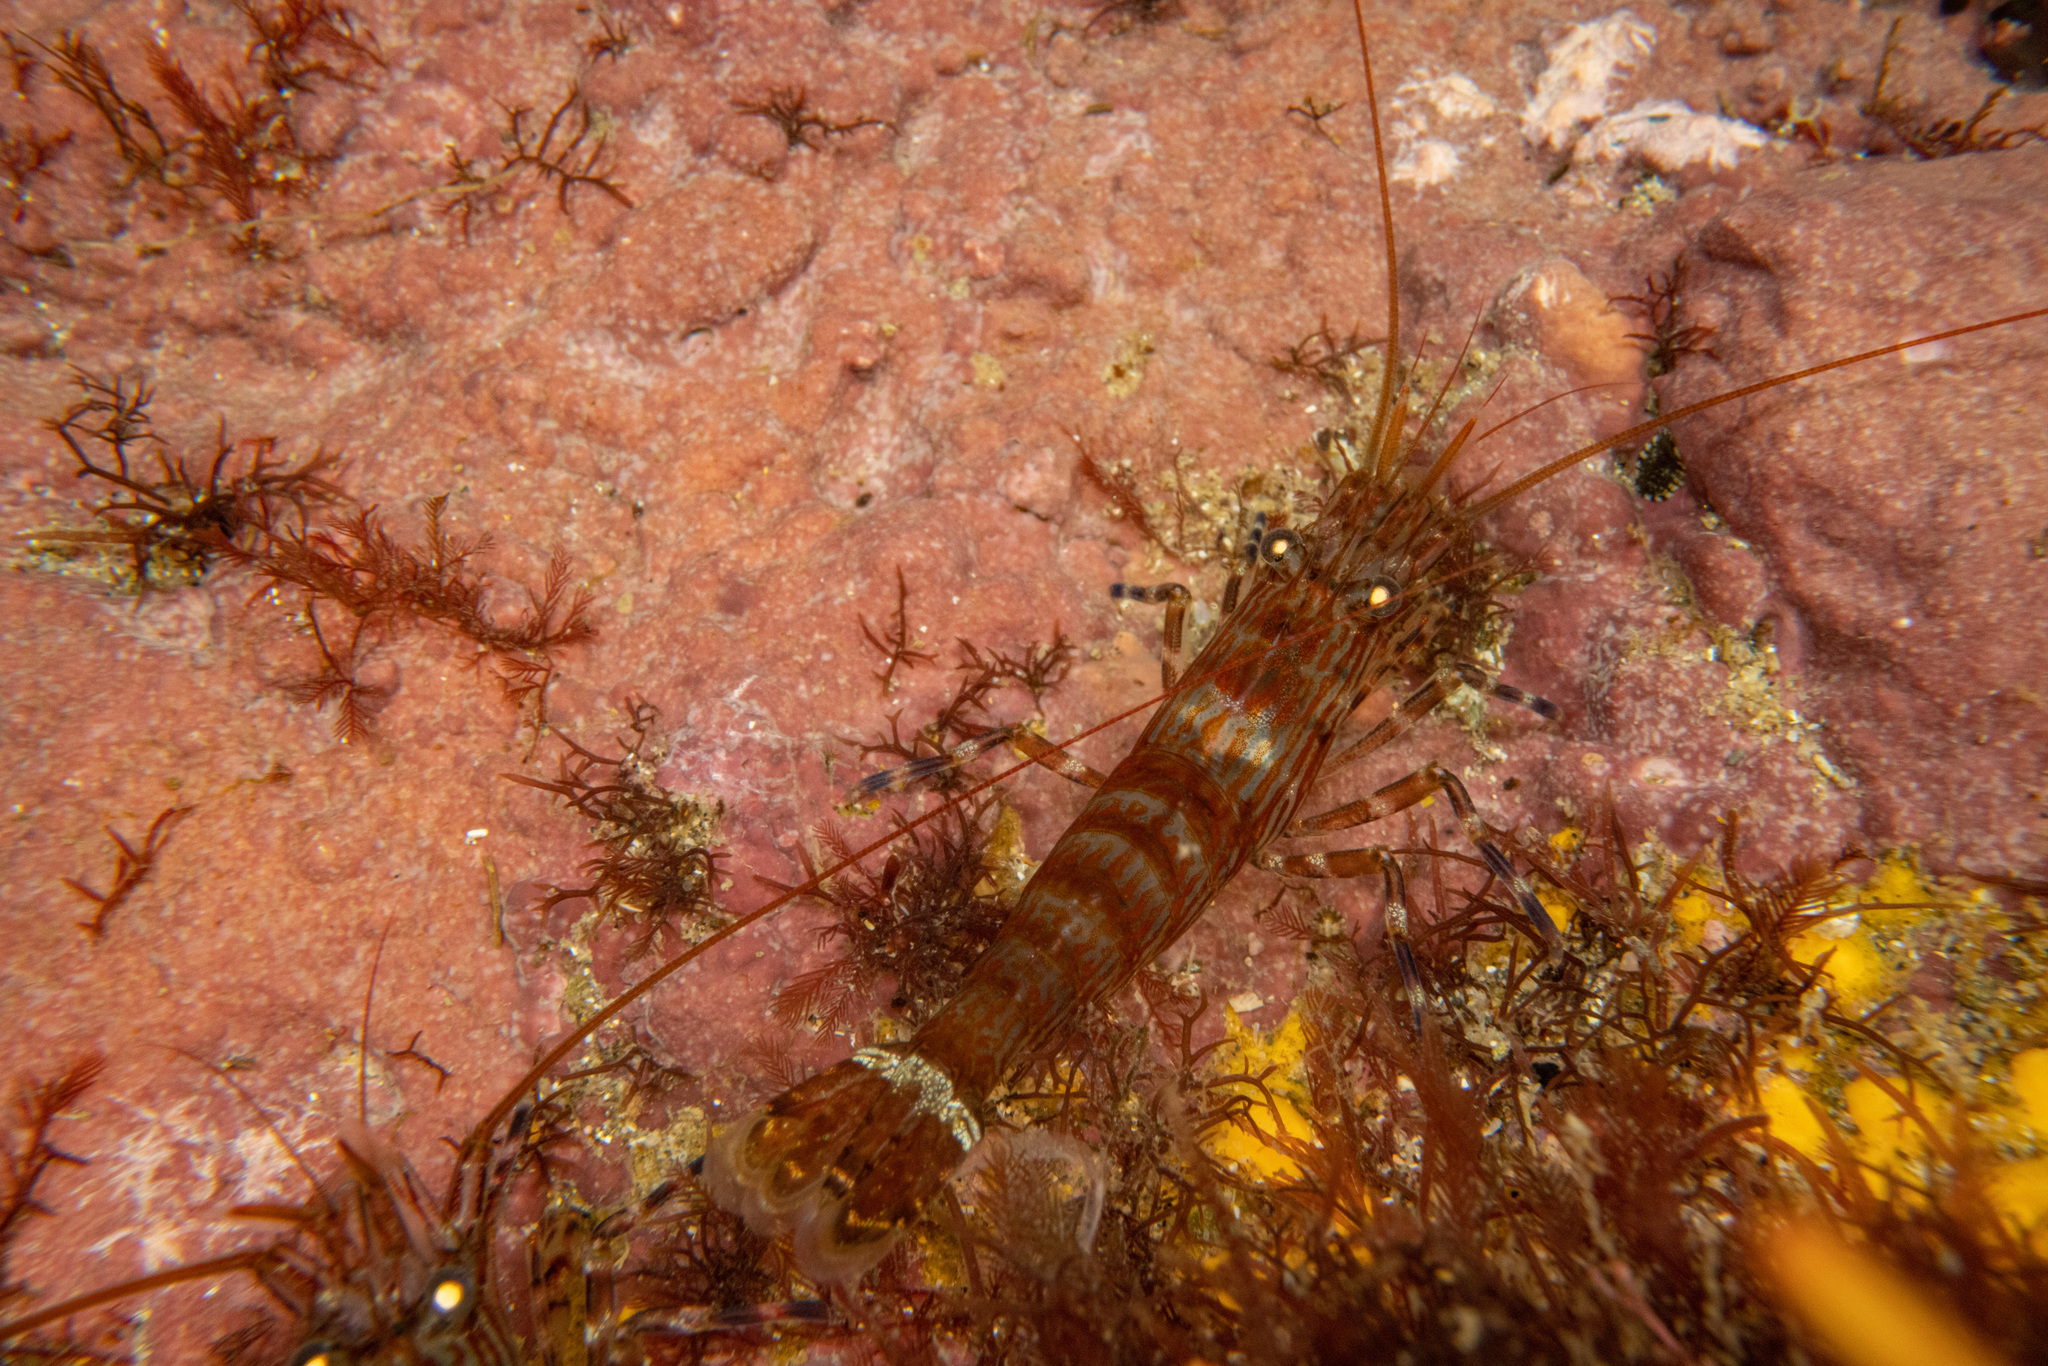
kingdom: Animalia
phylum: Arthropoda
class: Malacostraca
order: Decapoda
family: Hippolytidae
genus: Alope
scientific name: Alope spinifrons
